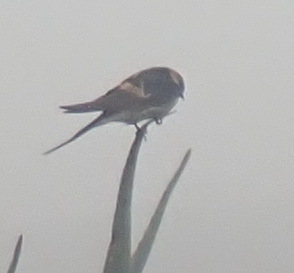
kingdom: Animalia
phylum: Chordata
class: Aves
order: Passeriformes
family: Hirundinidae
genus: Cecropis
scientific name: Cecropis cucullata
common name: Greater striped-swallow
